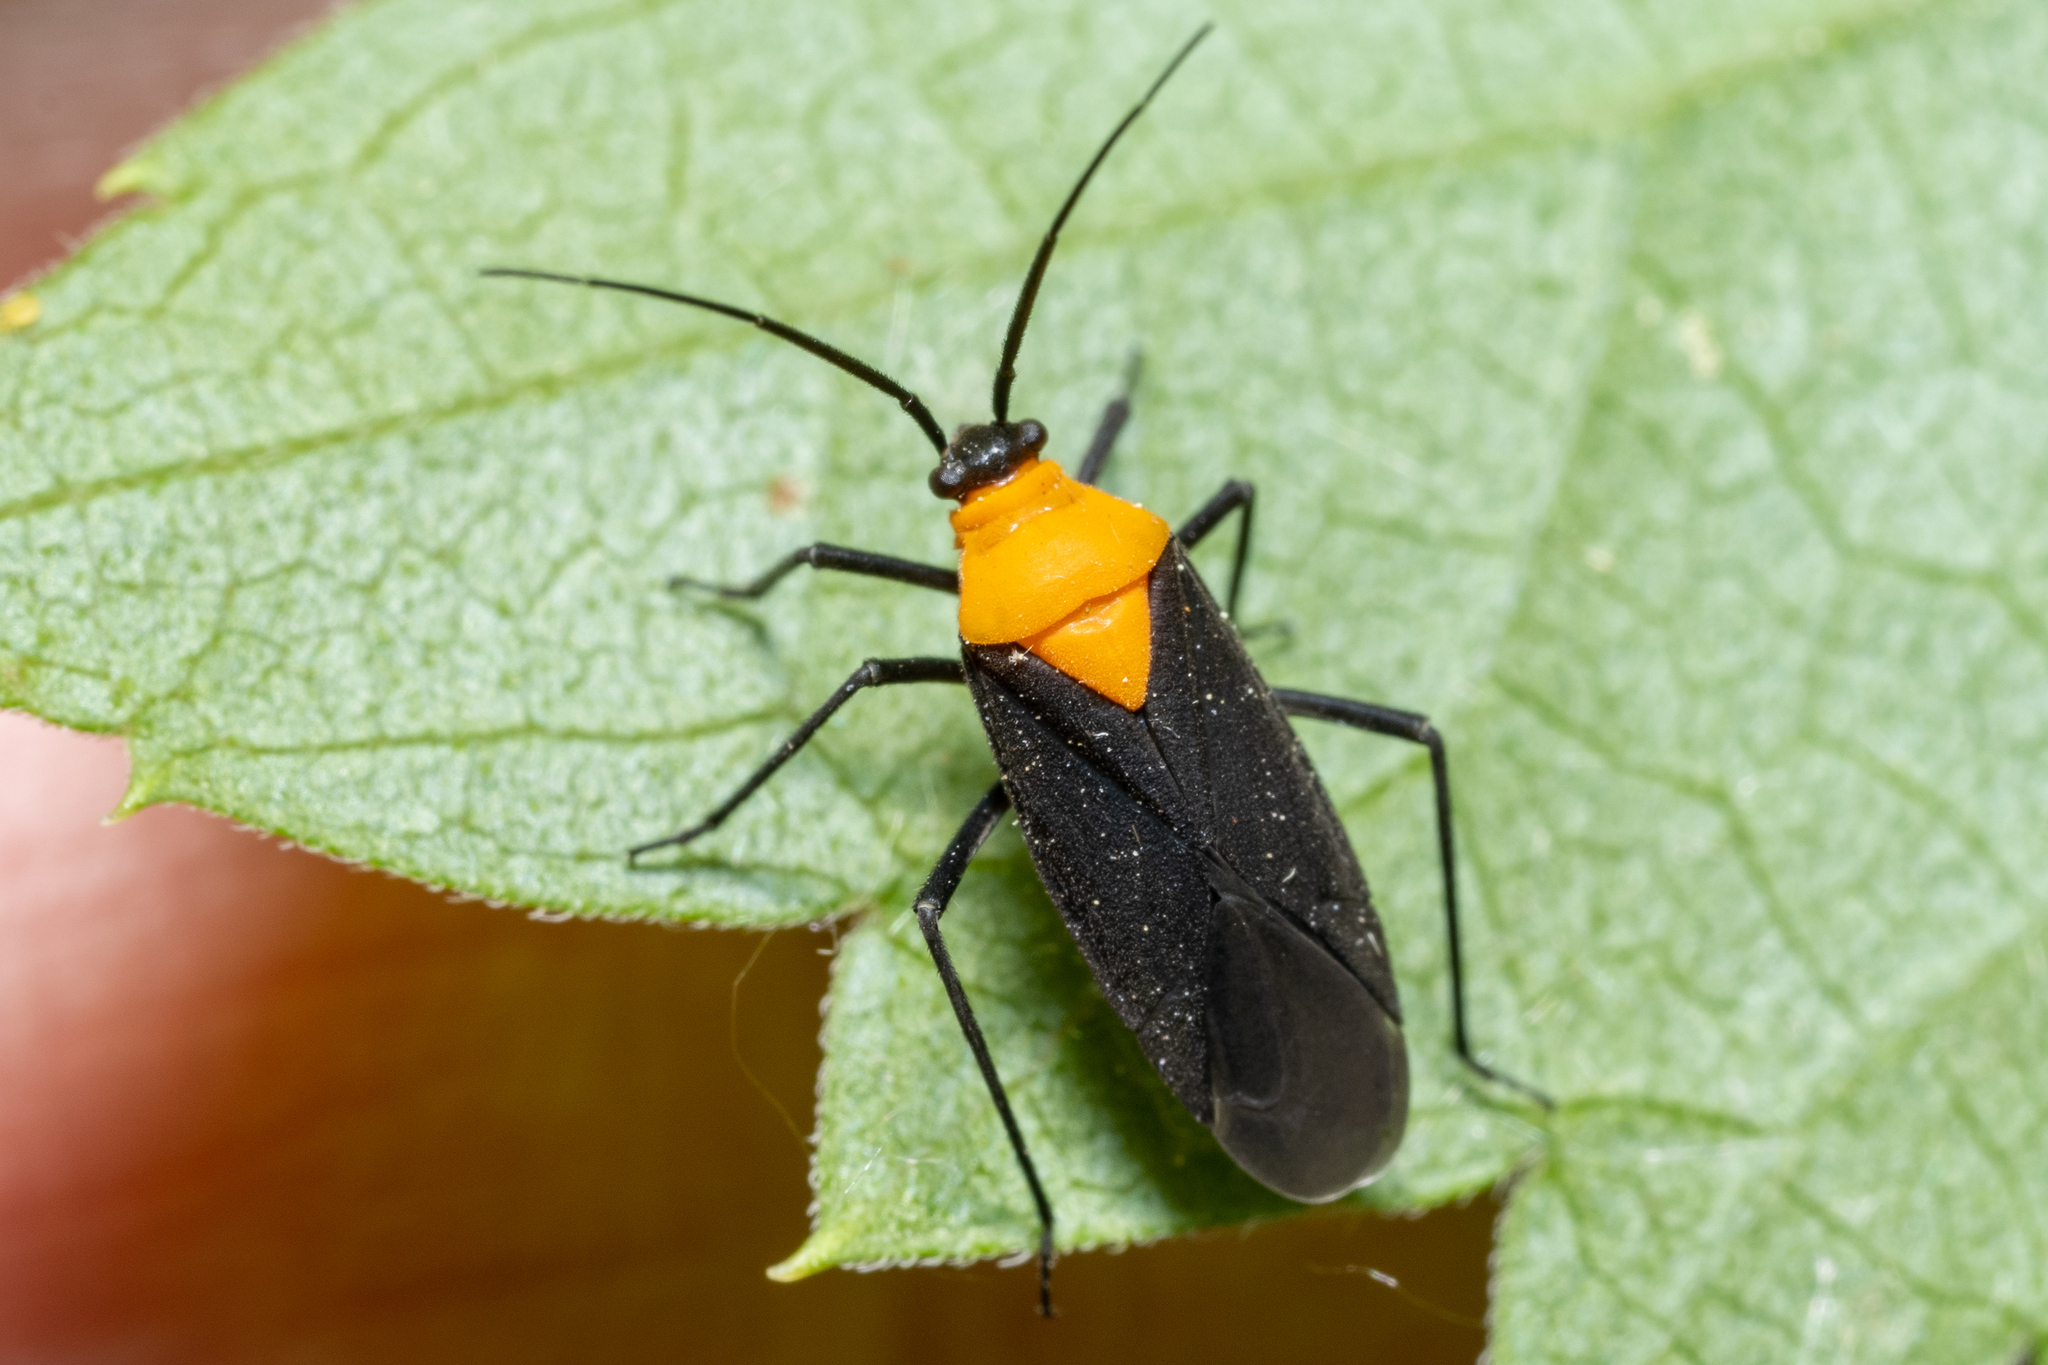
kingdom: Animalia
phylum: Arthropoda
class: Insecta
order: Hemiptera
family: Miridae
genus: Prepops
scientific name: Prepops insitivus
